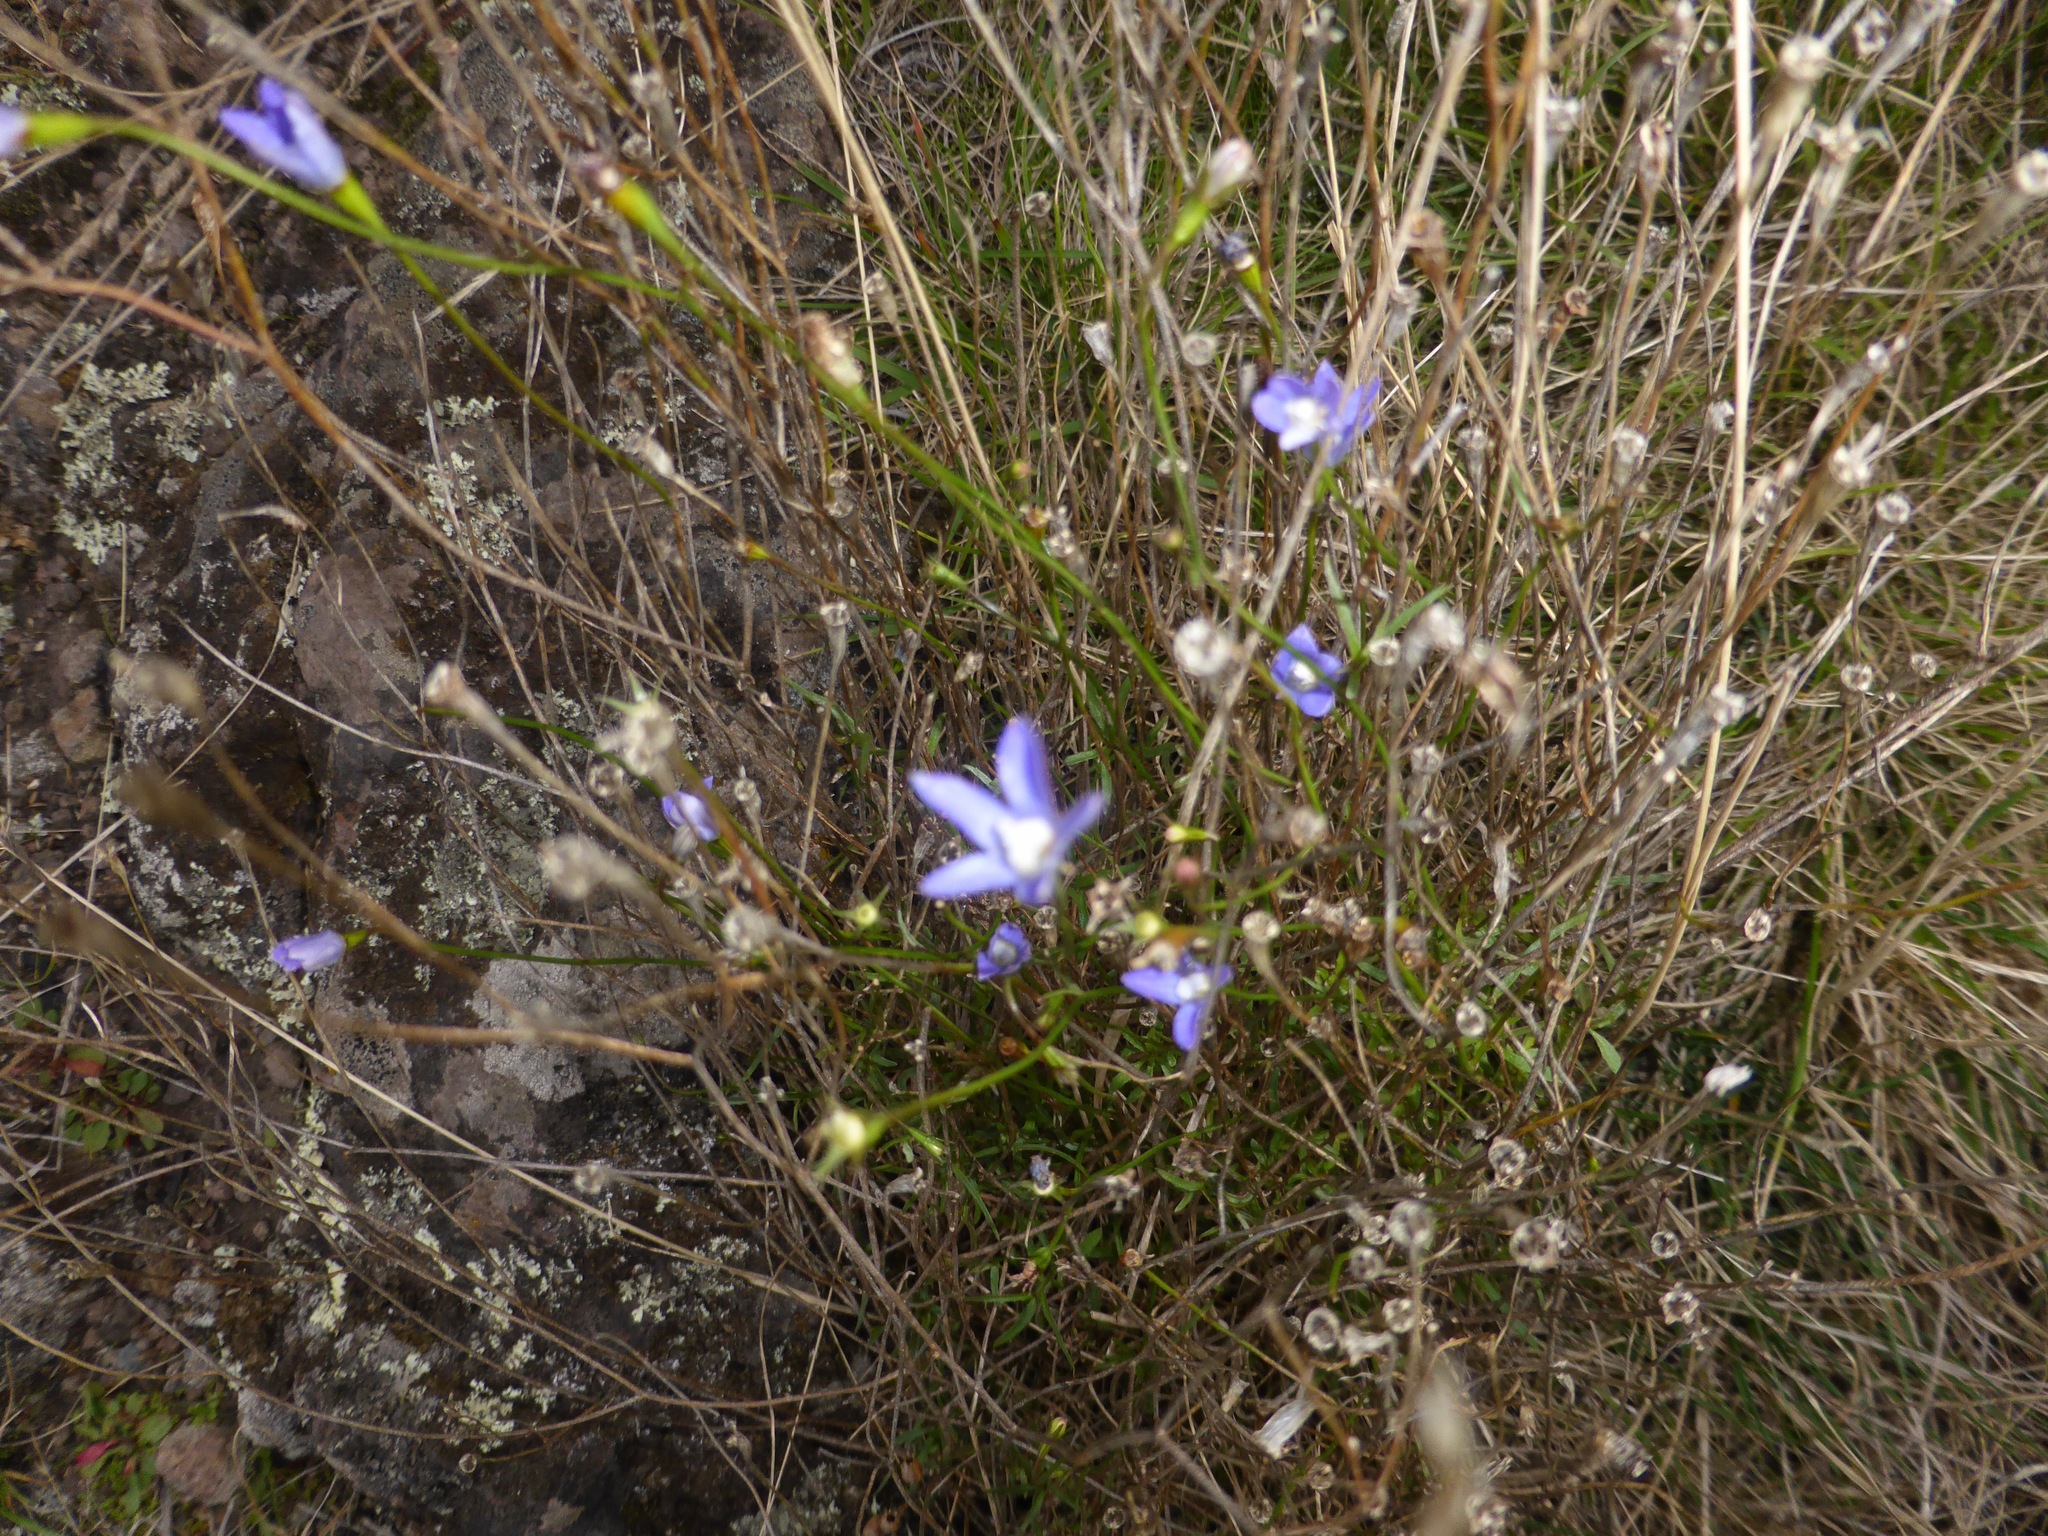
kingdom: Plantae
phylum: Tracheophyta
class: Magnoliopsida
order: Asterales
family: Campanulaceae
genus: Wahlenbergia
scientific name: Wahlenbergia violacea
